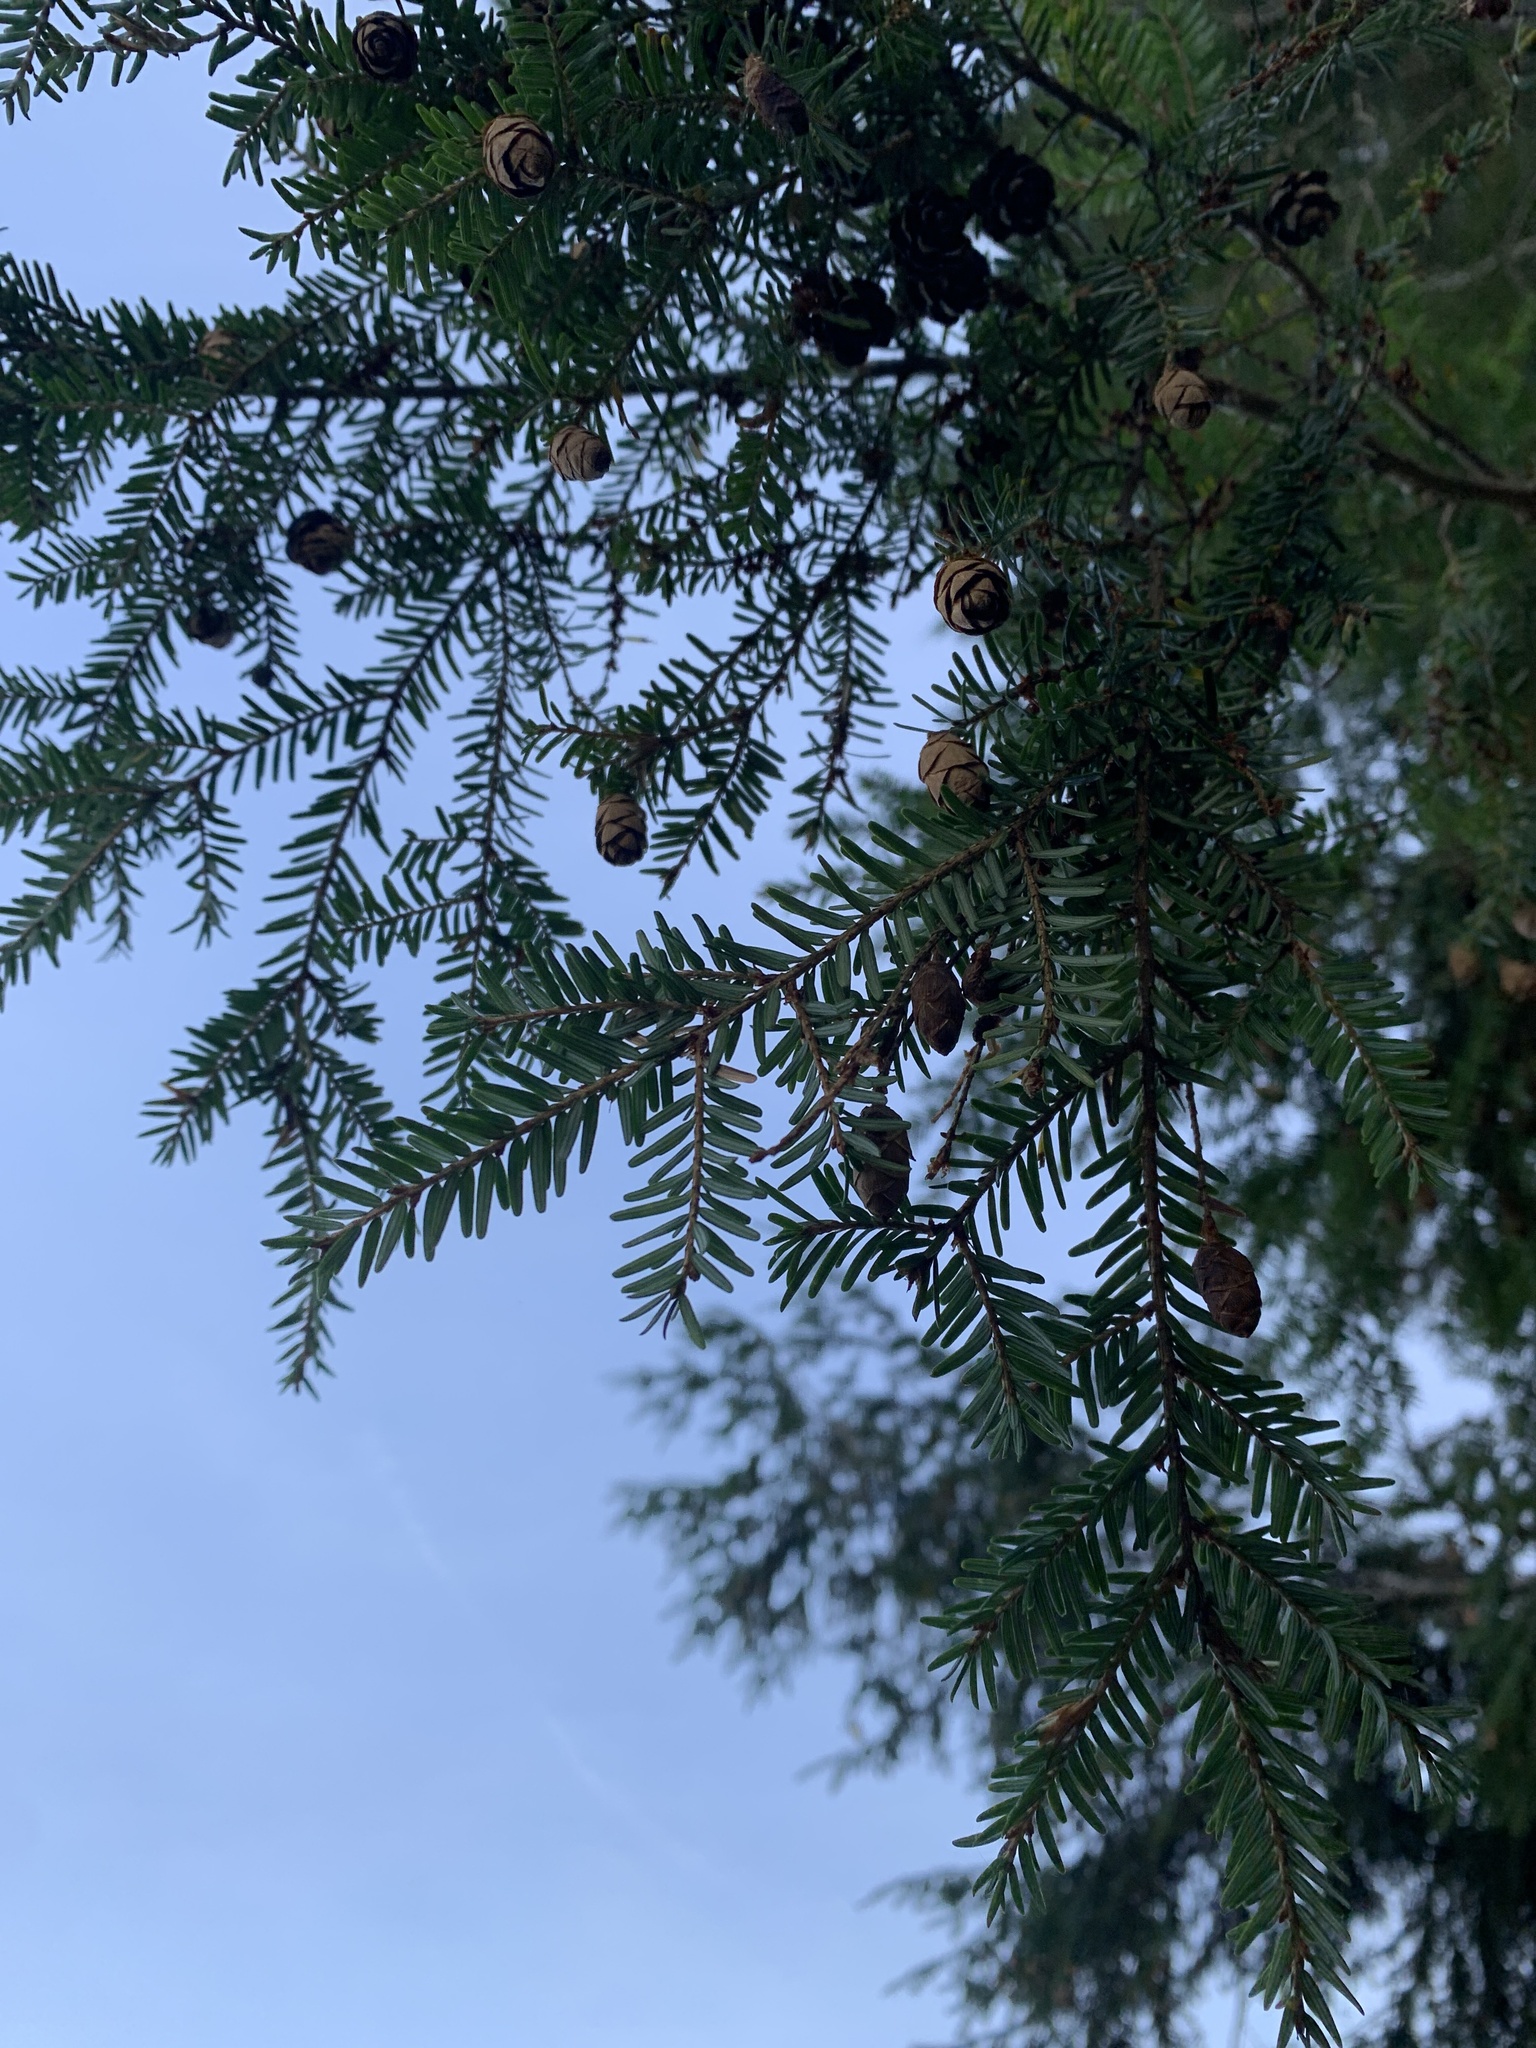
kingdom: Plantae
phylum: Tracheophyta
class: Pinopsida
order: Pinales
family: Pinaceae
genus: Tsuga
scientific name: Tsuga canadensis
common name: Eastern hemlock
